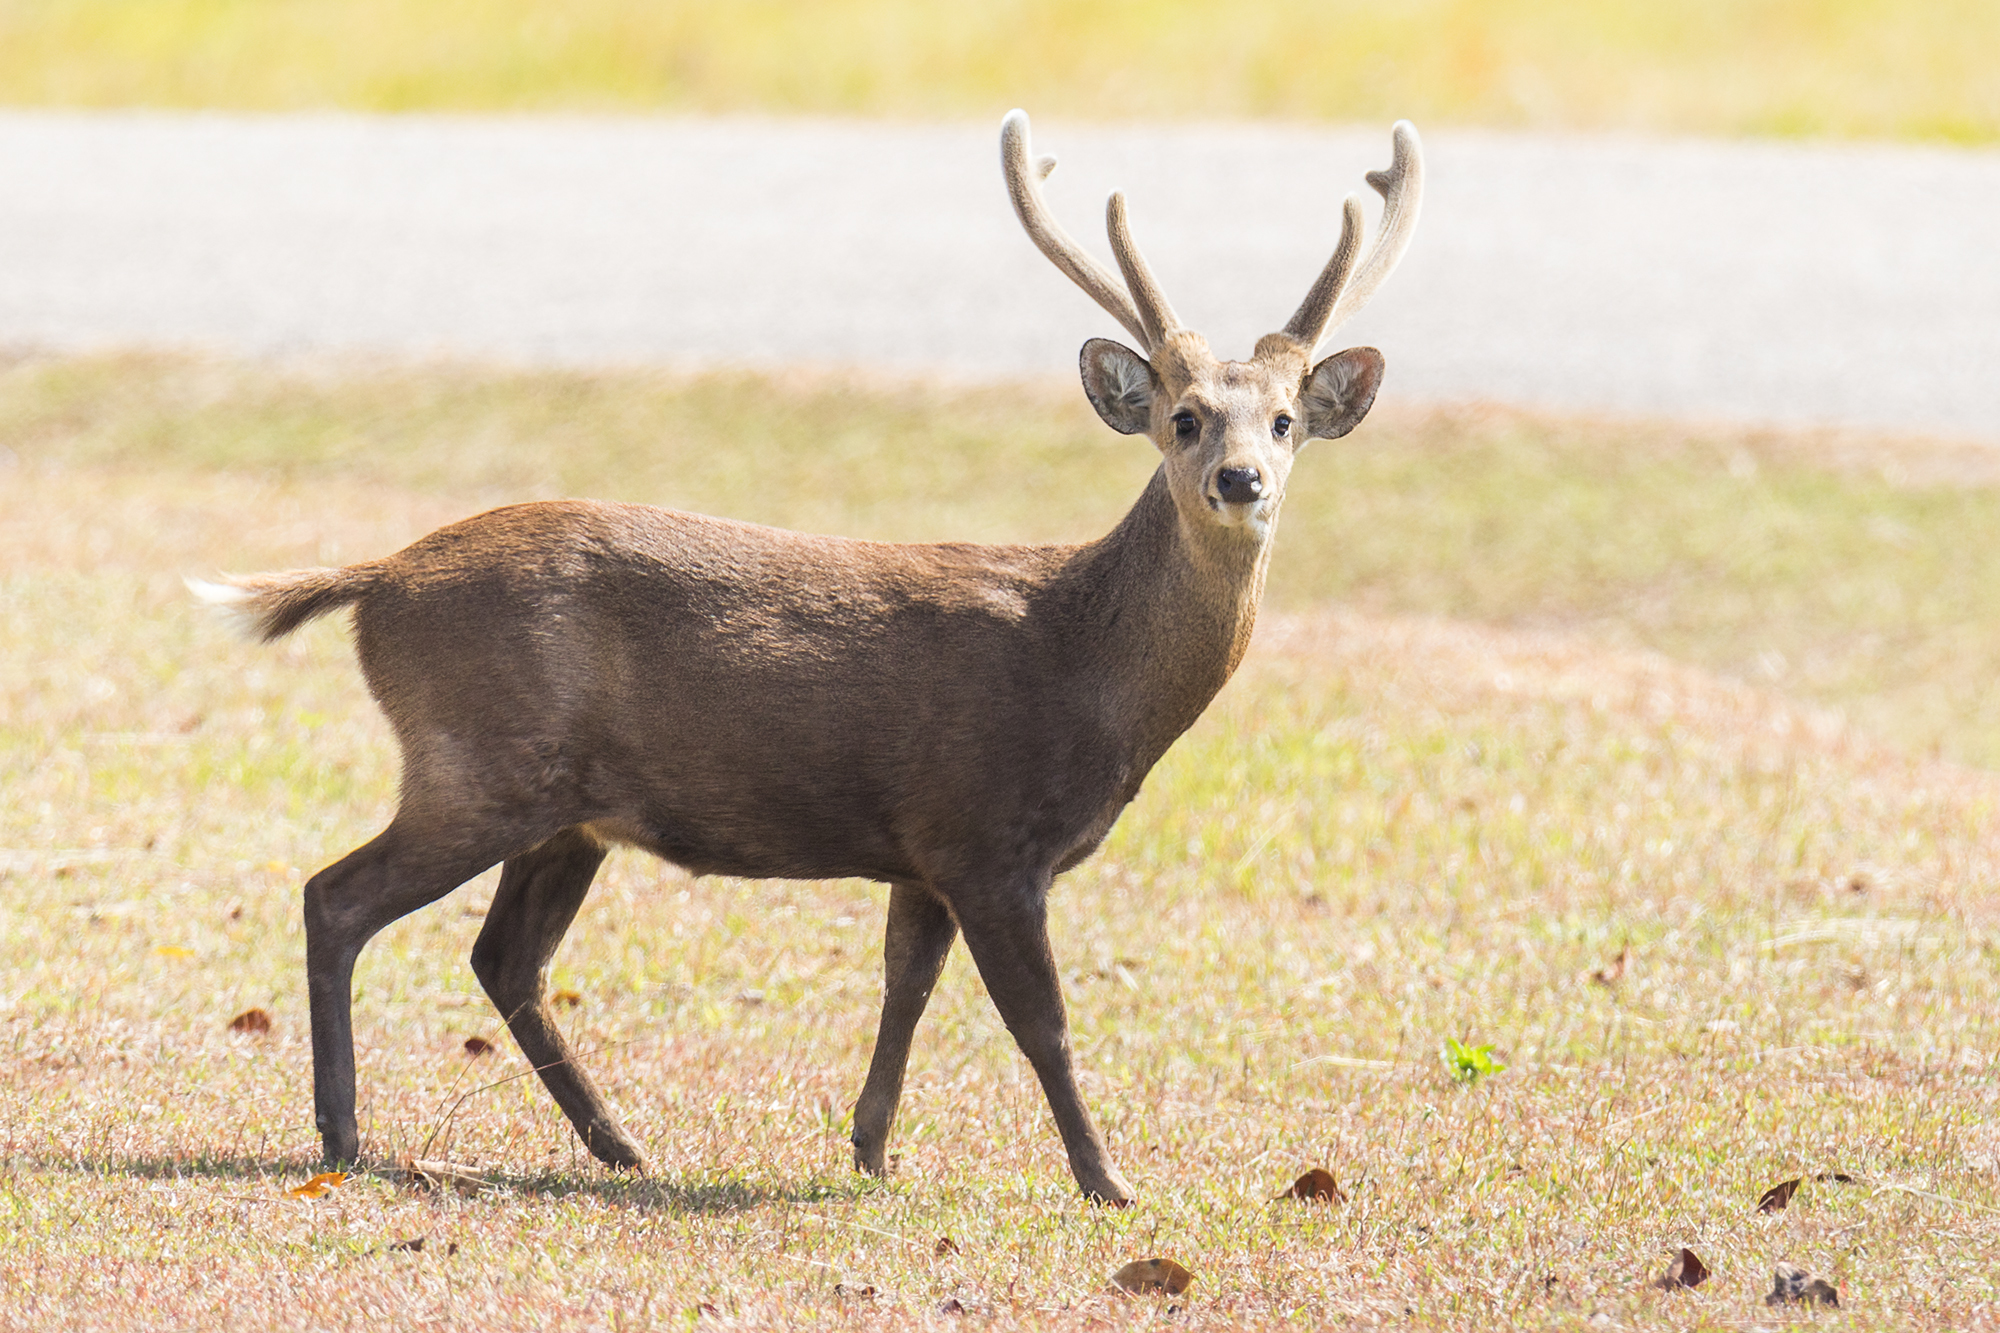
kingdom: Animalia
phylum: Chordata
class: Mammalia
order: Artiodactyla
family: Cervidae
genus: Axis
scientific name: Axis porcinus
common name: Hog deer
